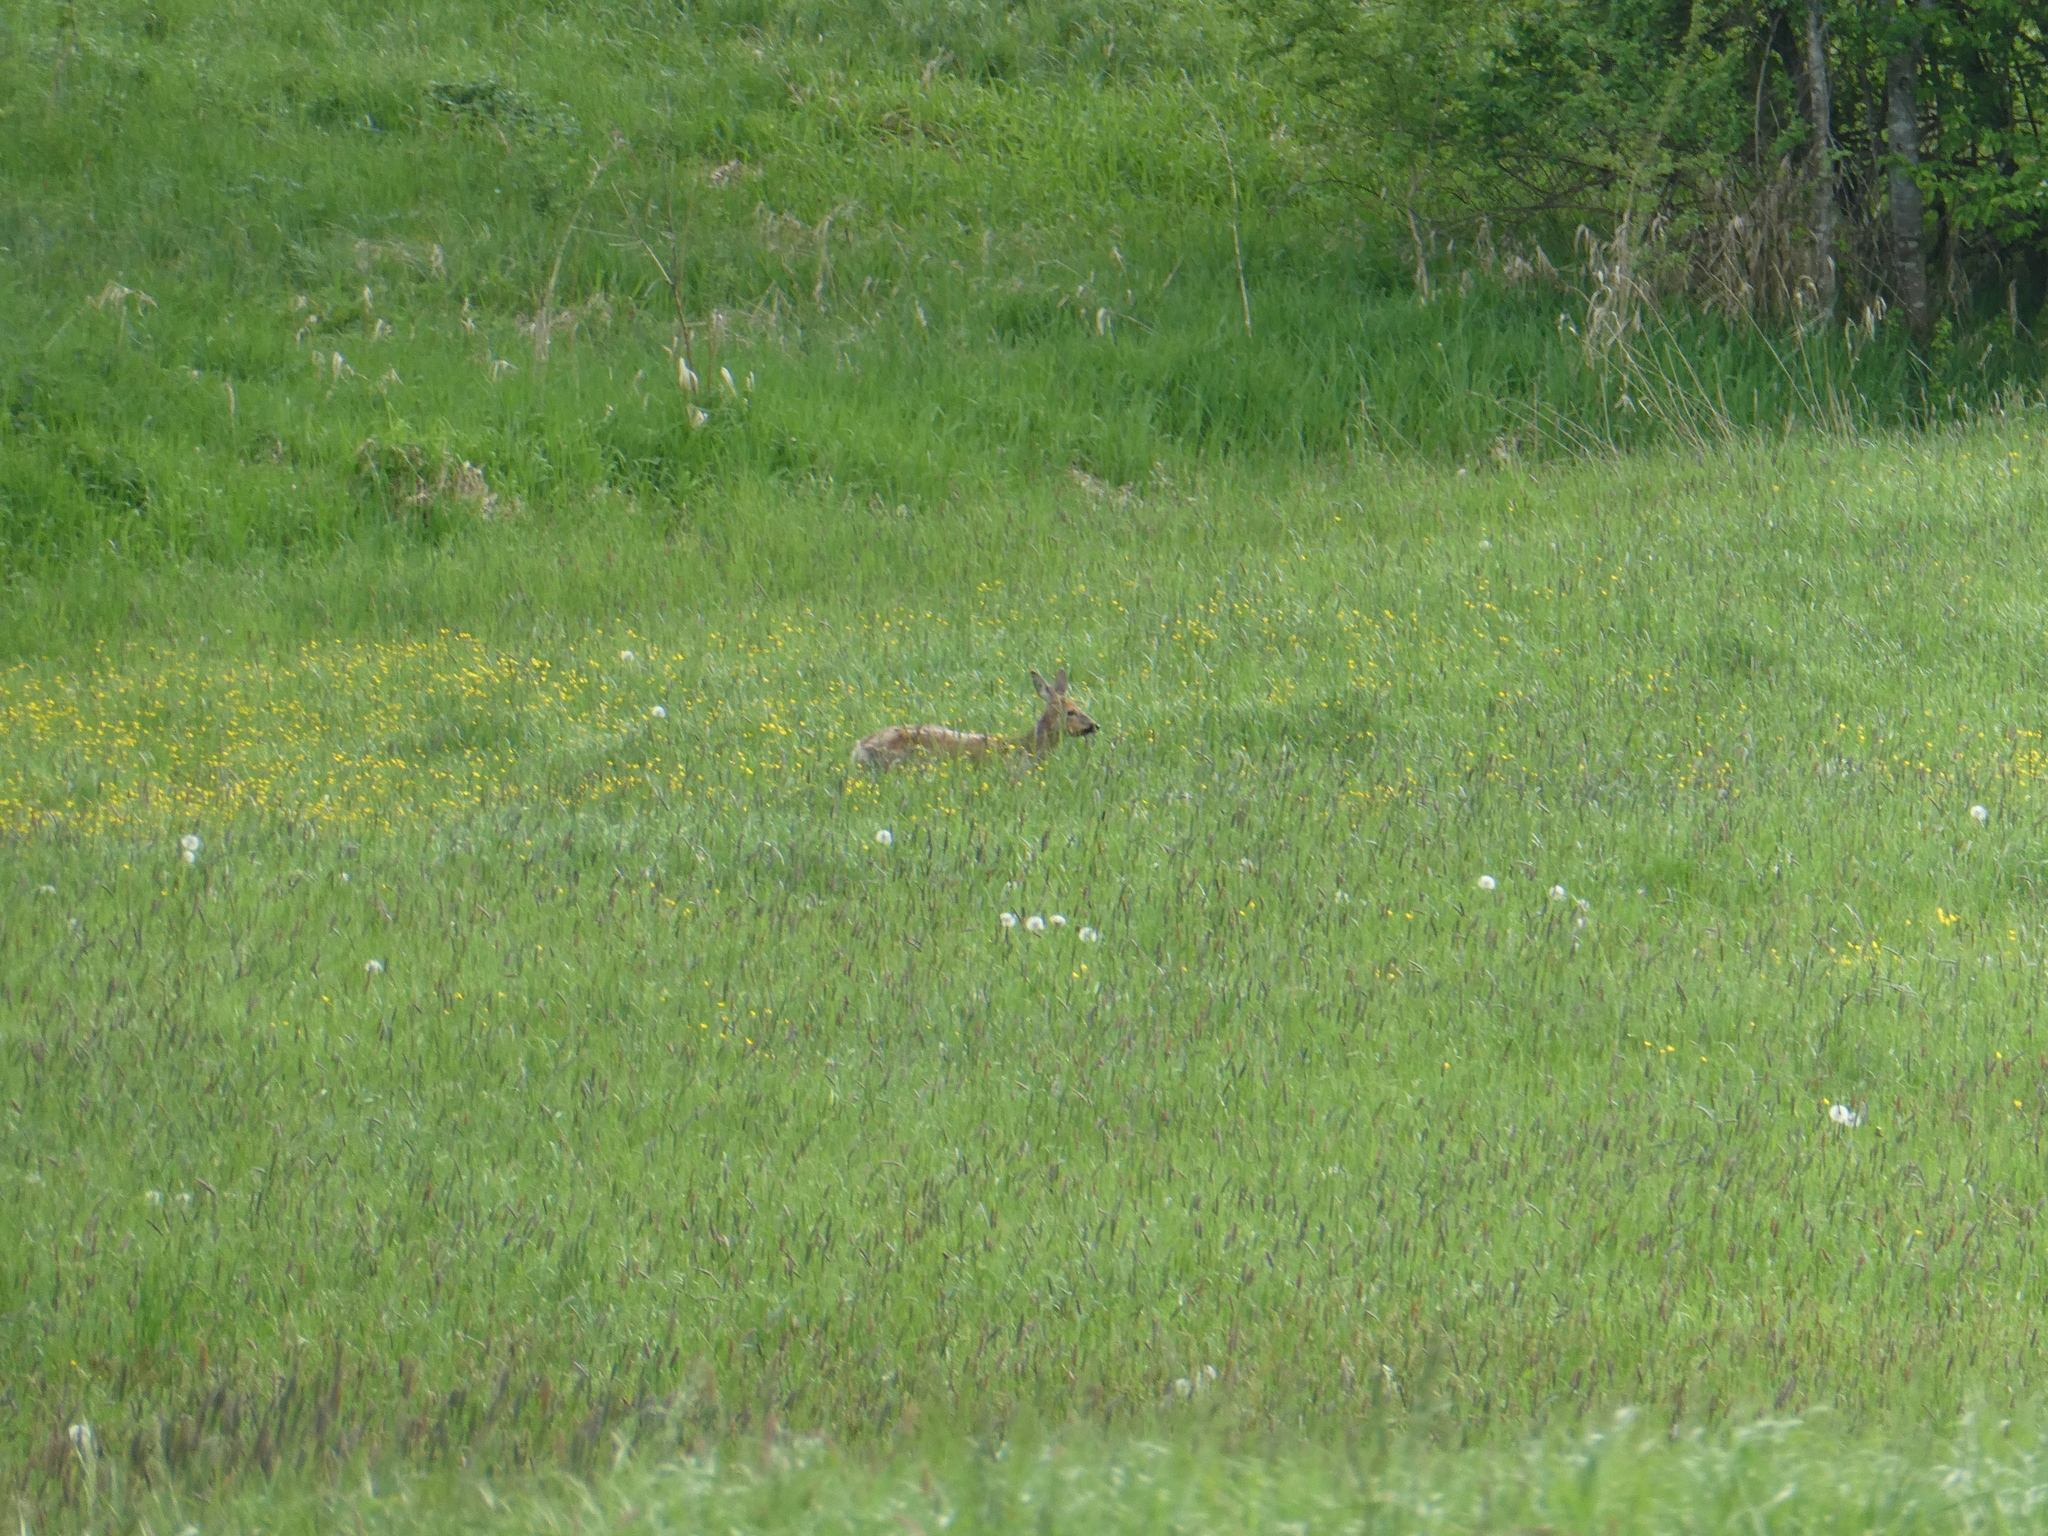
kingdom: Animalia
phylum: Chordata
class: Mammalia
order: Artiodactyla
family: Cervidae
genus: Capreolus
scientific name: Capreolus capreolus
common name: Western roe deer
